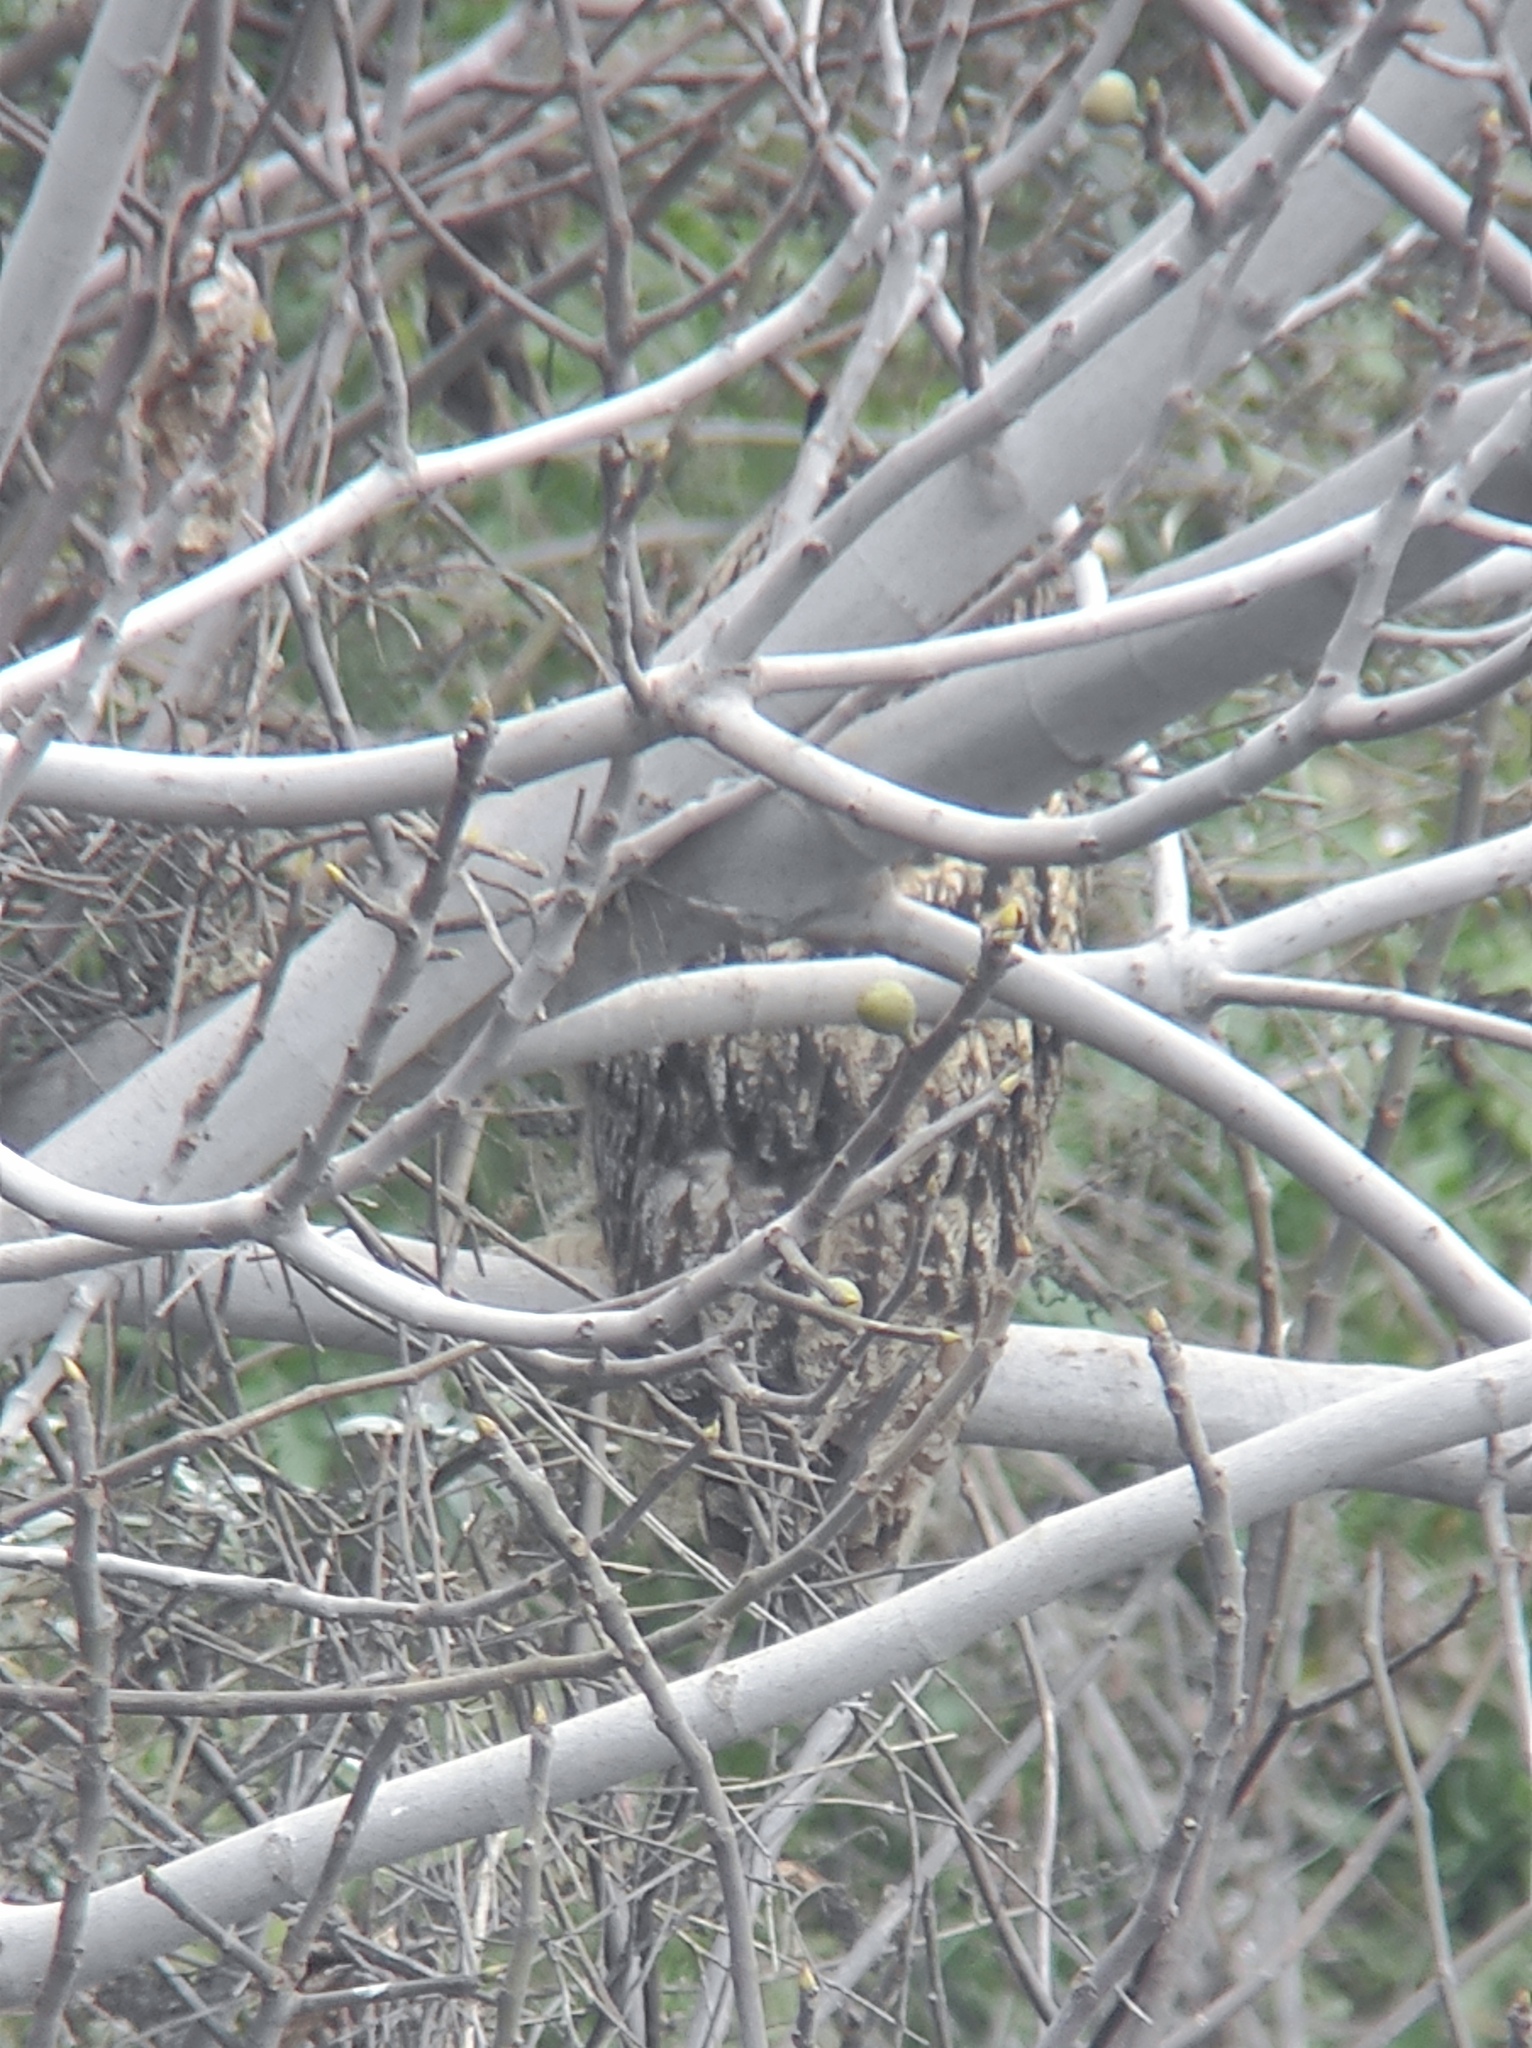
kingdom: Animalia
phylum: Chordata
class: Aves
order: Strigiformes
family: Strigidae
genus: Bubo
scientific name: Bubo bubo
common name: Eurasian eagle-owl
